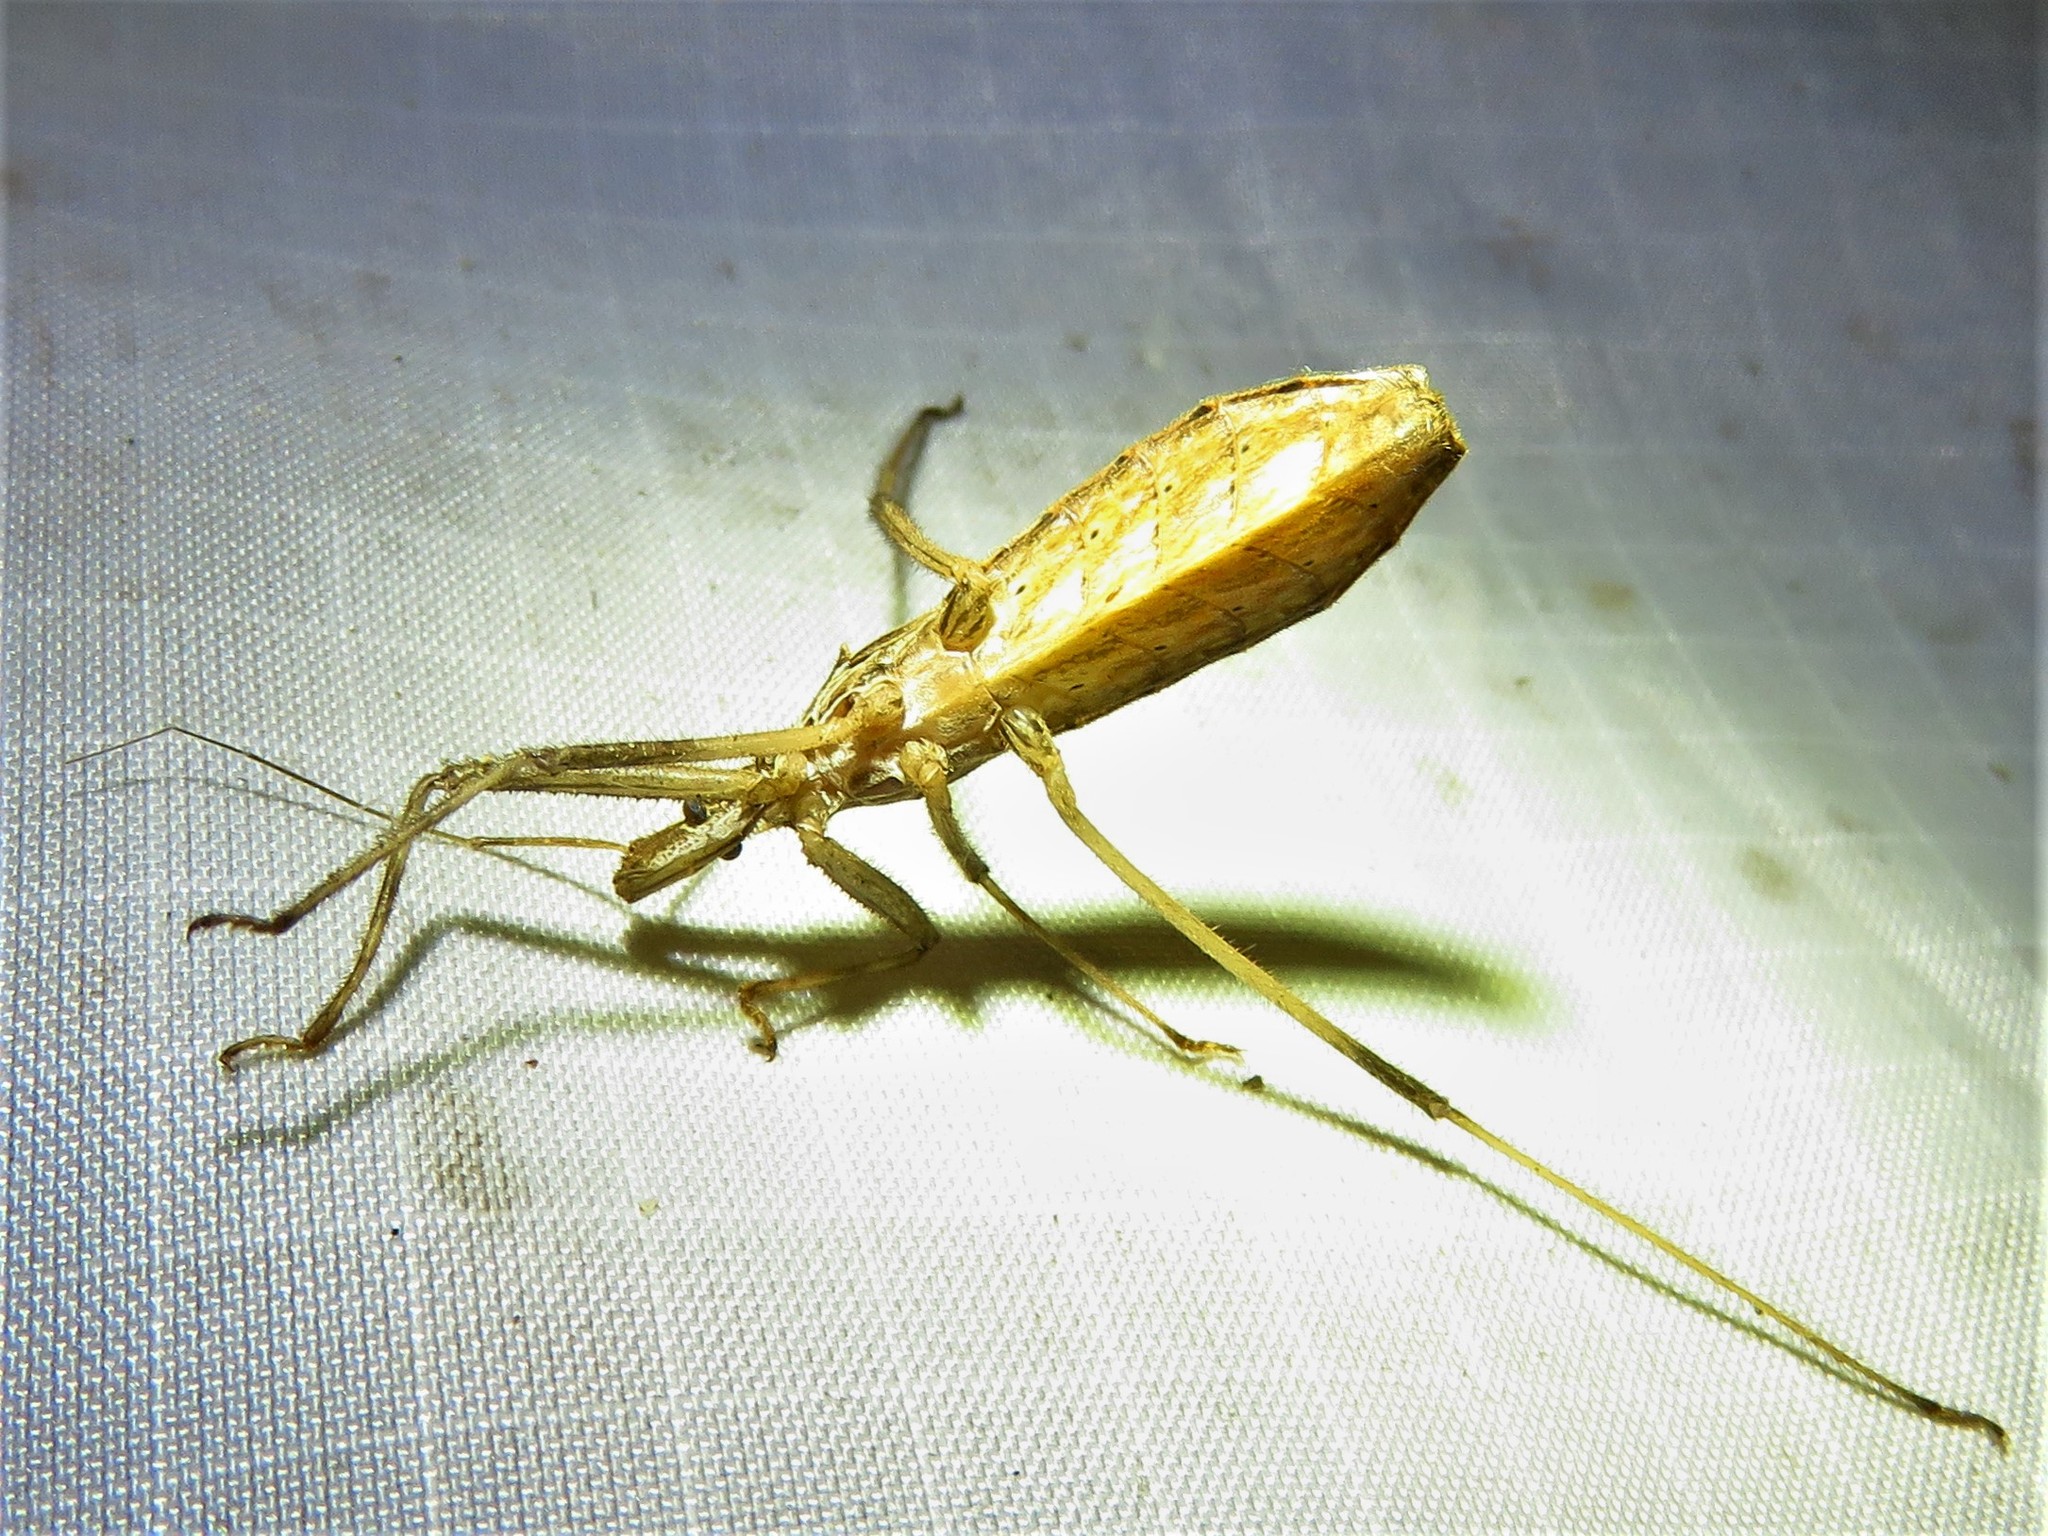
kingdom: Animalia
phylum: Arthropoda
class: Insecta
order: Hemiptera
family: Reduviidae
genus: Stenopoda
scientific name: Stenopoda spinulosa
